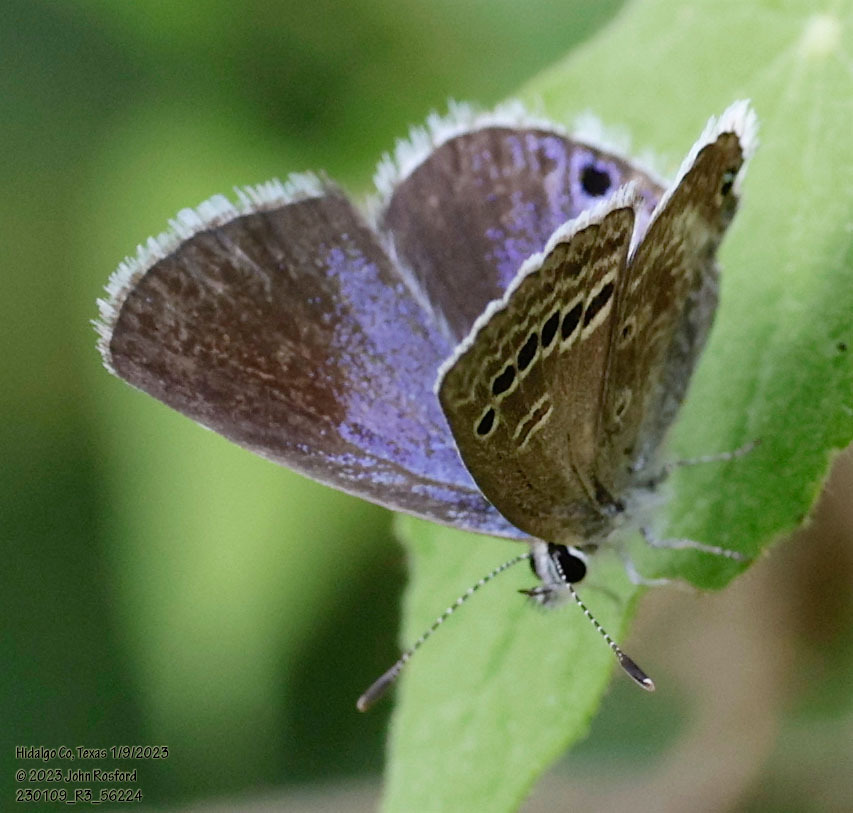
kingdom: Animalia
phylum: Arthropoda
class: Insecta
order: Lepidoptera
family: Lycaenidae
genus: Echinargus
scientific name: Echinargus isola
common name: Reakirt's blue
